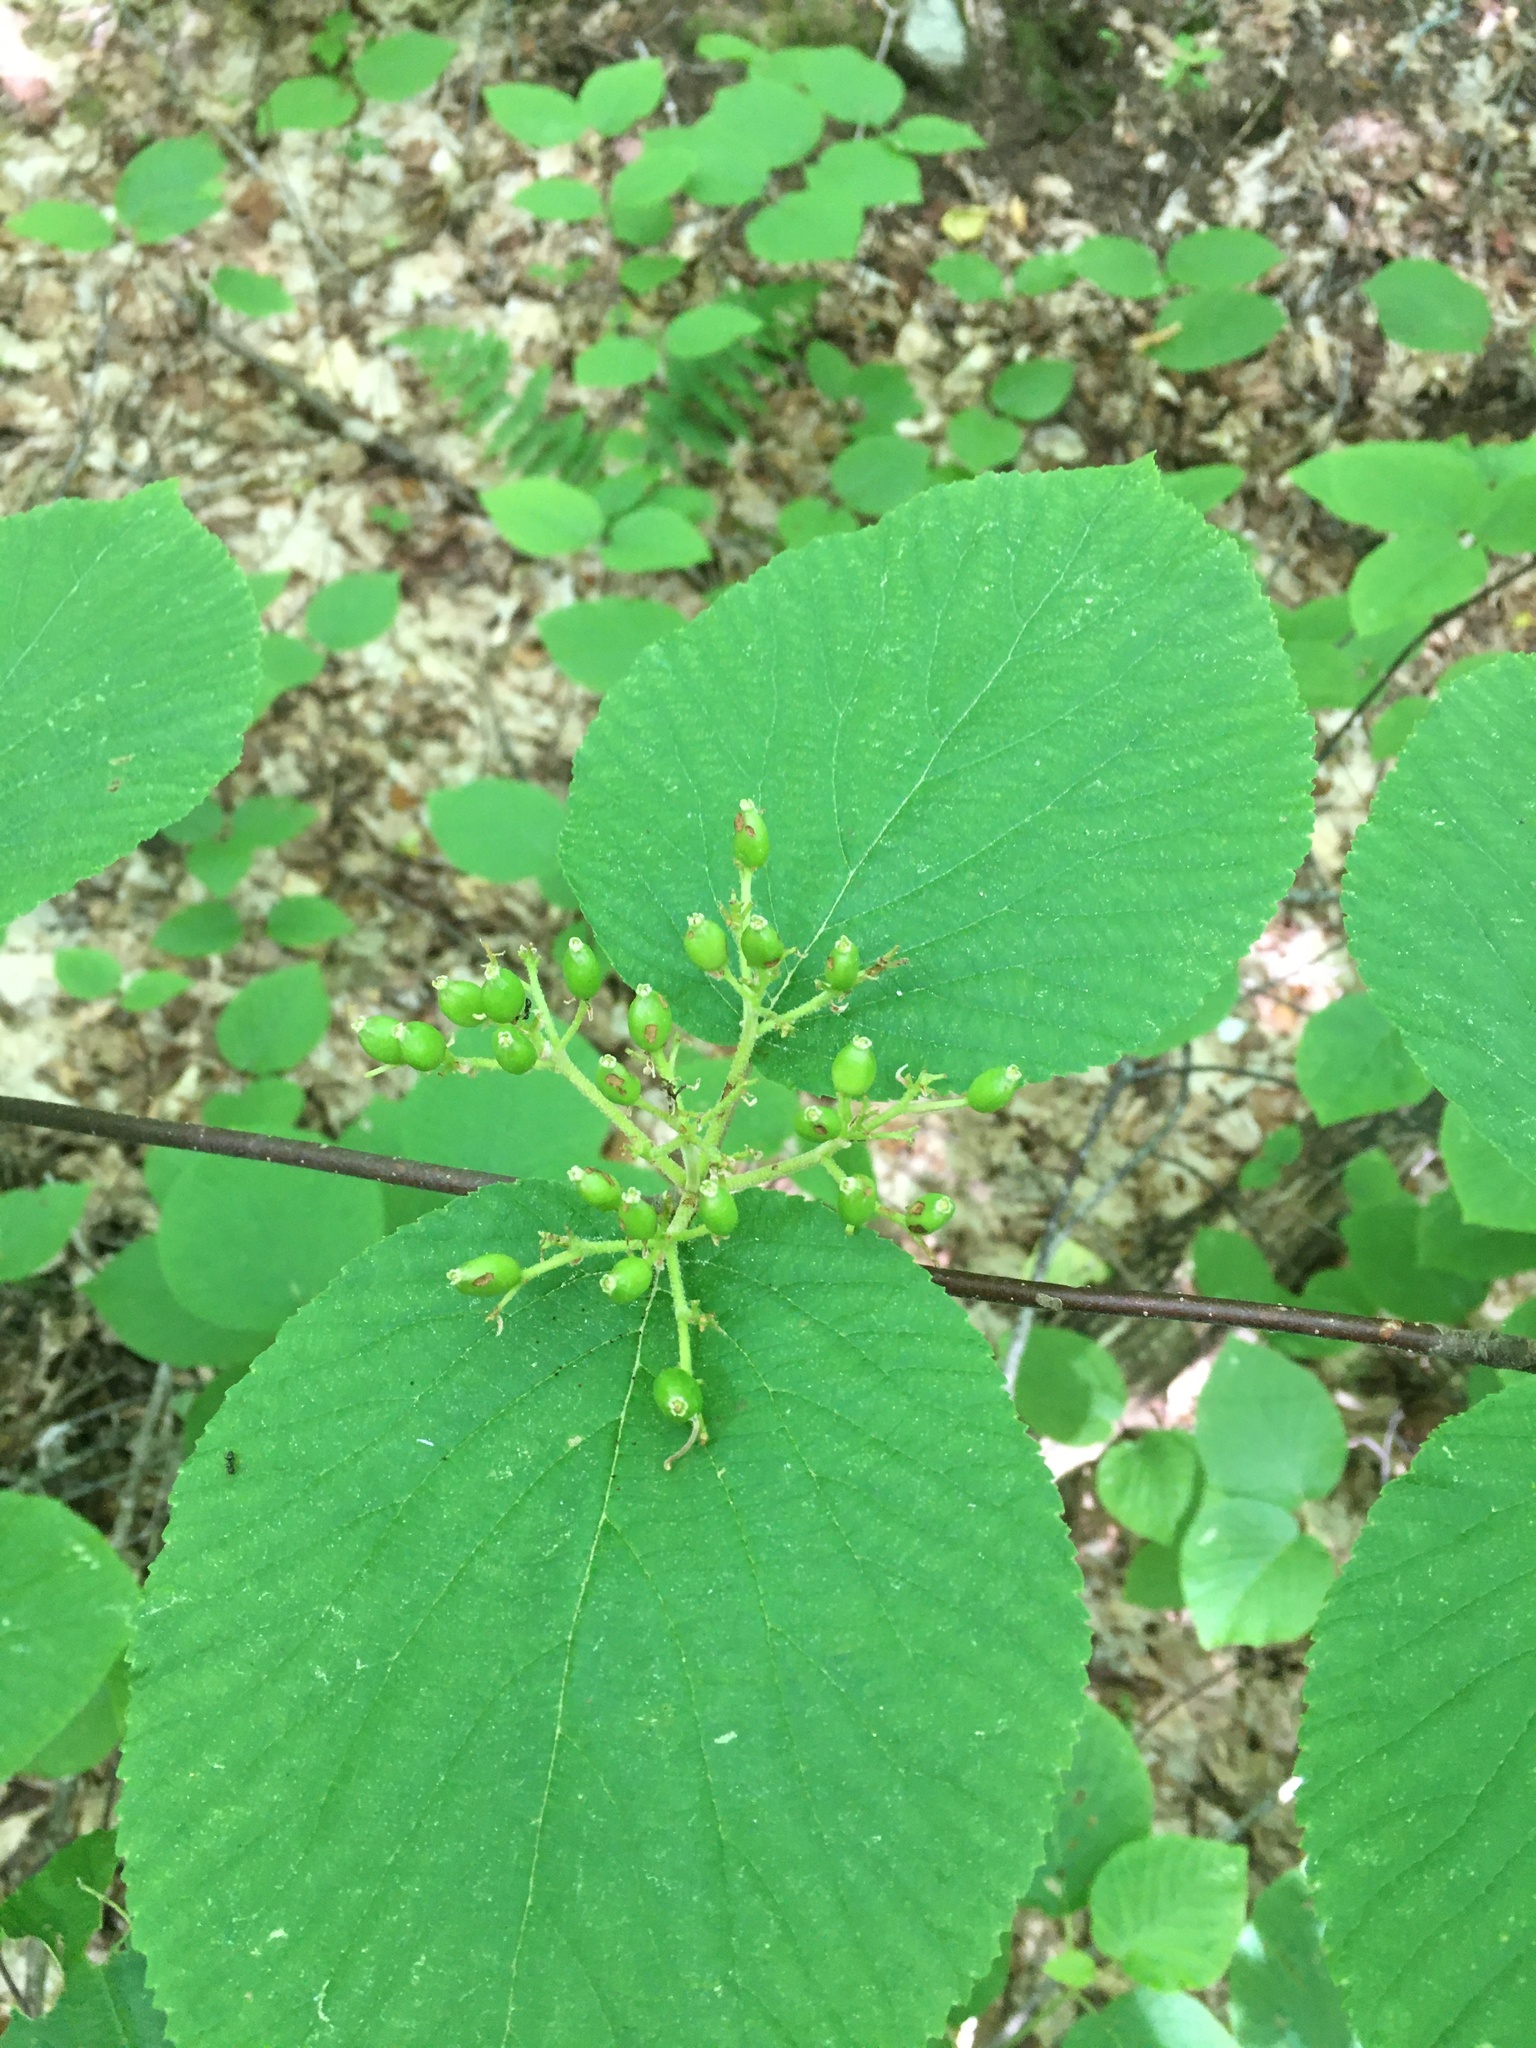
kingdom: Plantae
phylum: Tracheophyta
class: Magnoliopsida
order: Dipsacales
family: Viburnaceae
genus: Viburnum
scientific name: Viburnum lantanoides
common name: Hobblebush
